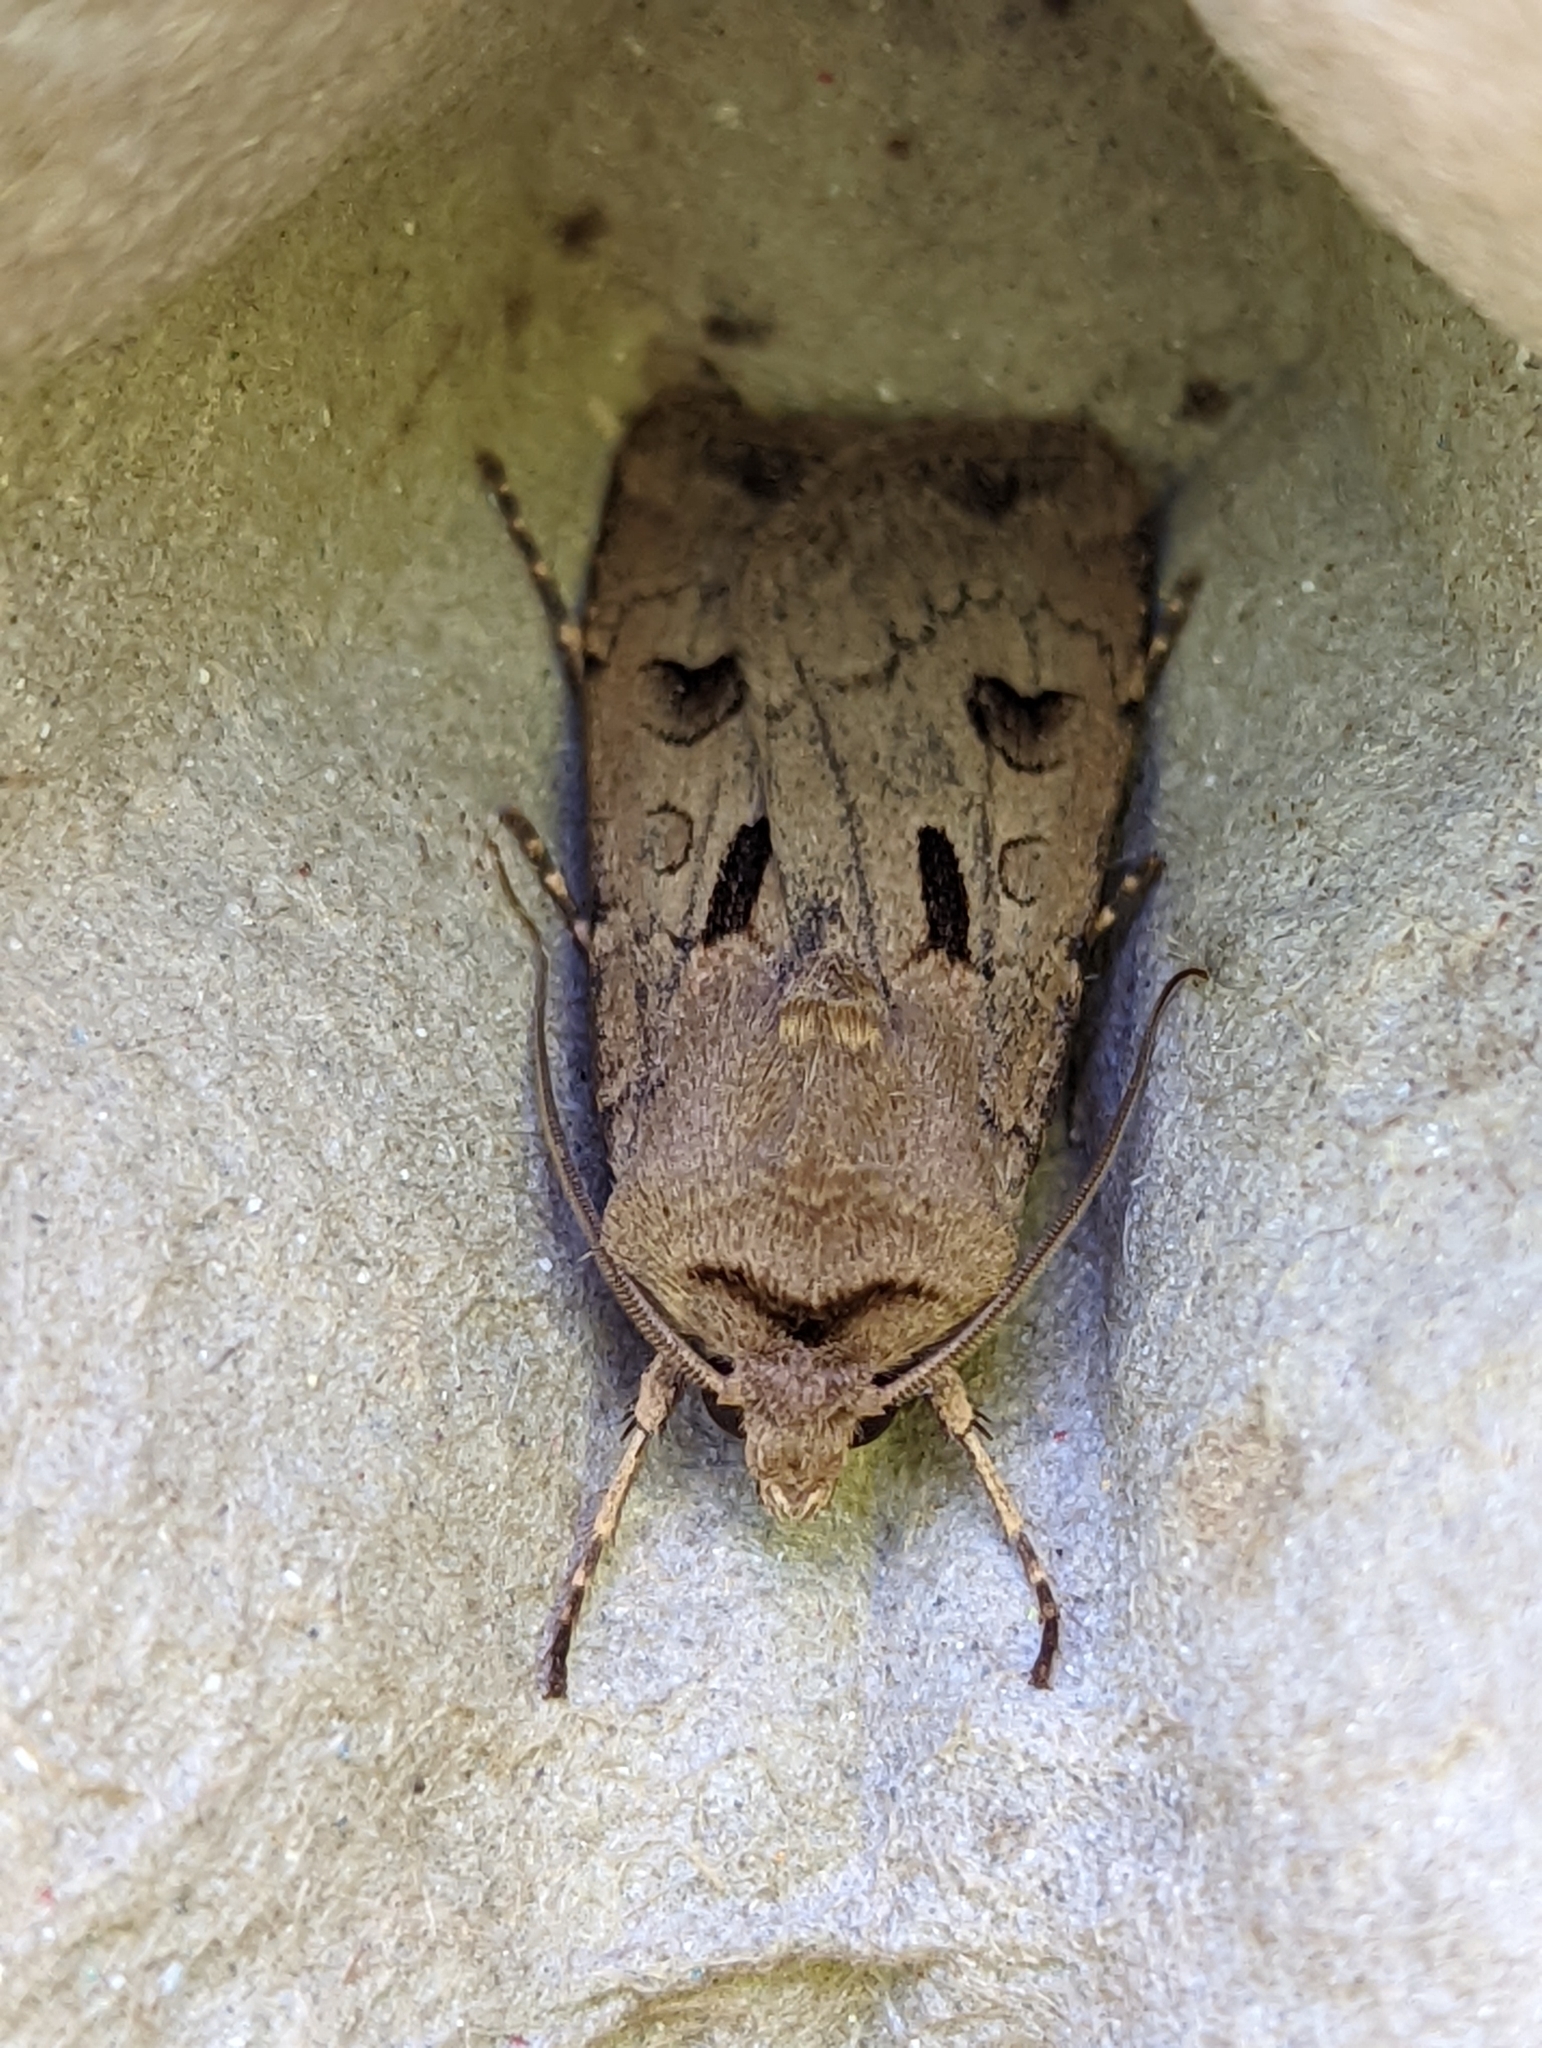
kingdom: Animalia
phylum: Arthropoda
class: Insecta
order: Lepidoptera
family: Noctuidae
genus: Agrotis
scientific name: Agrotis exclamationis
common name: Heart and dart
